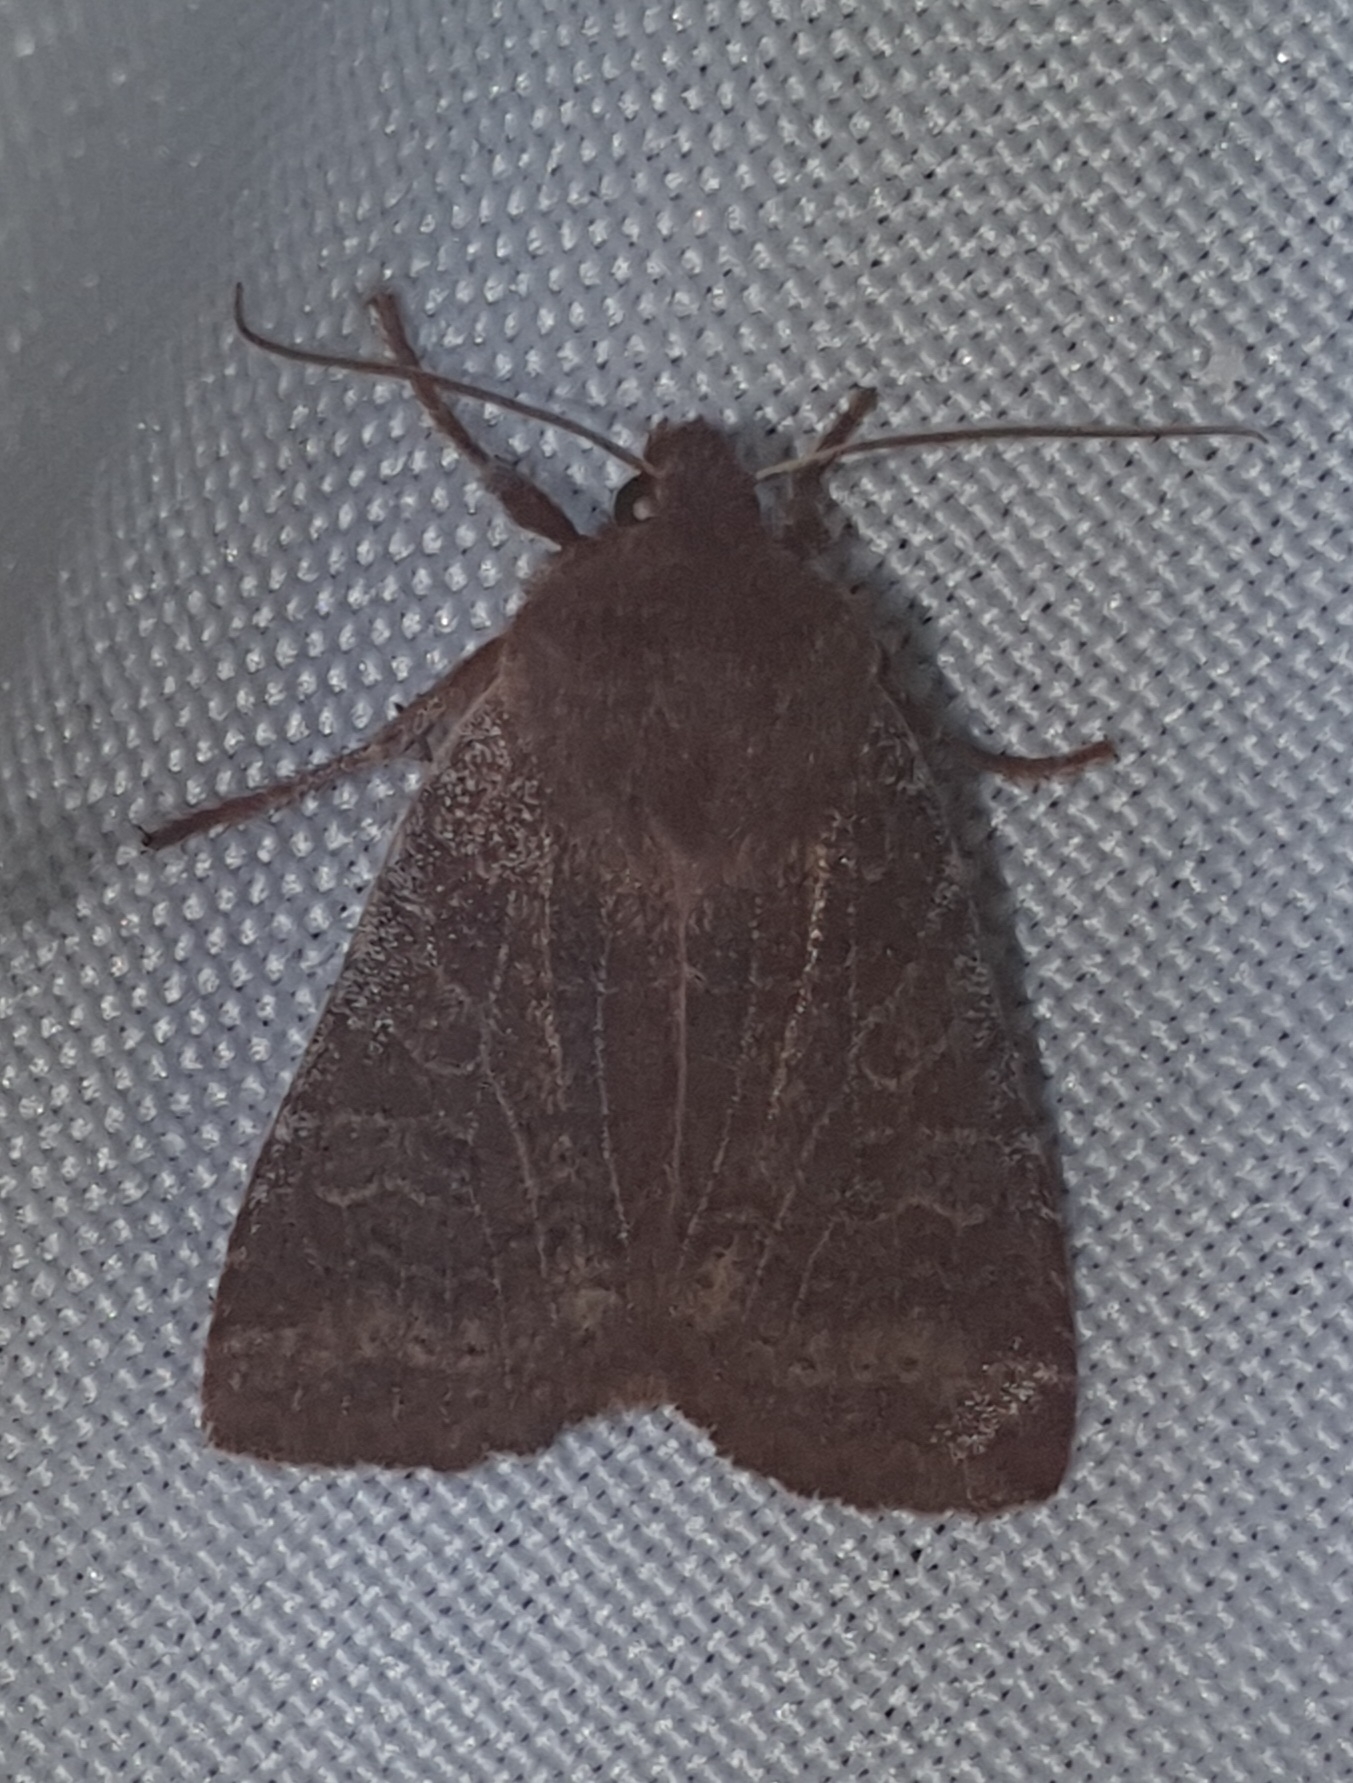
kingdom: Animalia
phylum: Arthropoda
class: Insecta
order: Lepidoptera
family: Noctuidae
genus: Conistra
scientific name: Conistra vaccinii
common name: Chestnut
